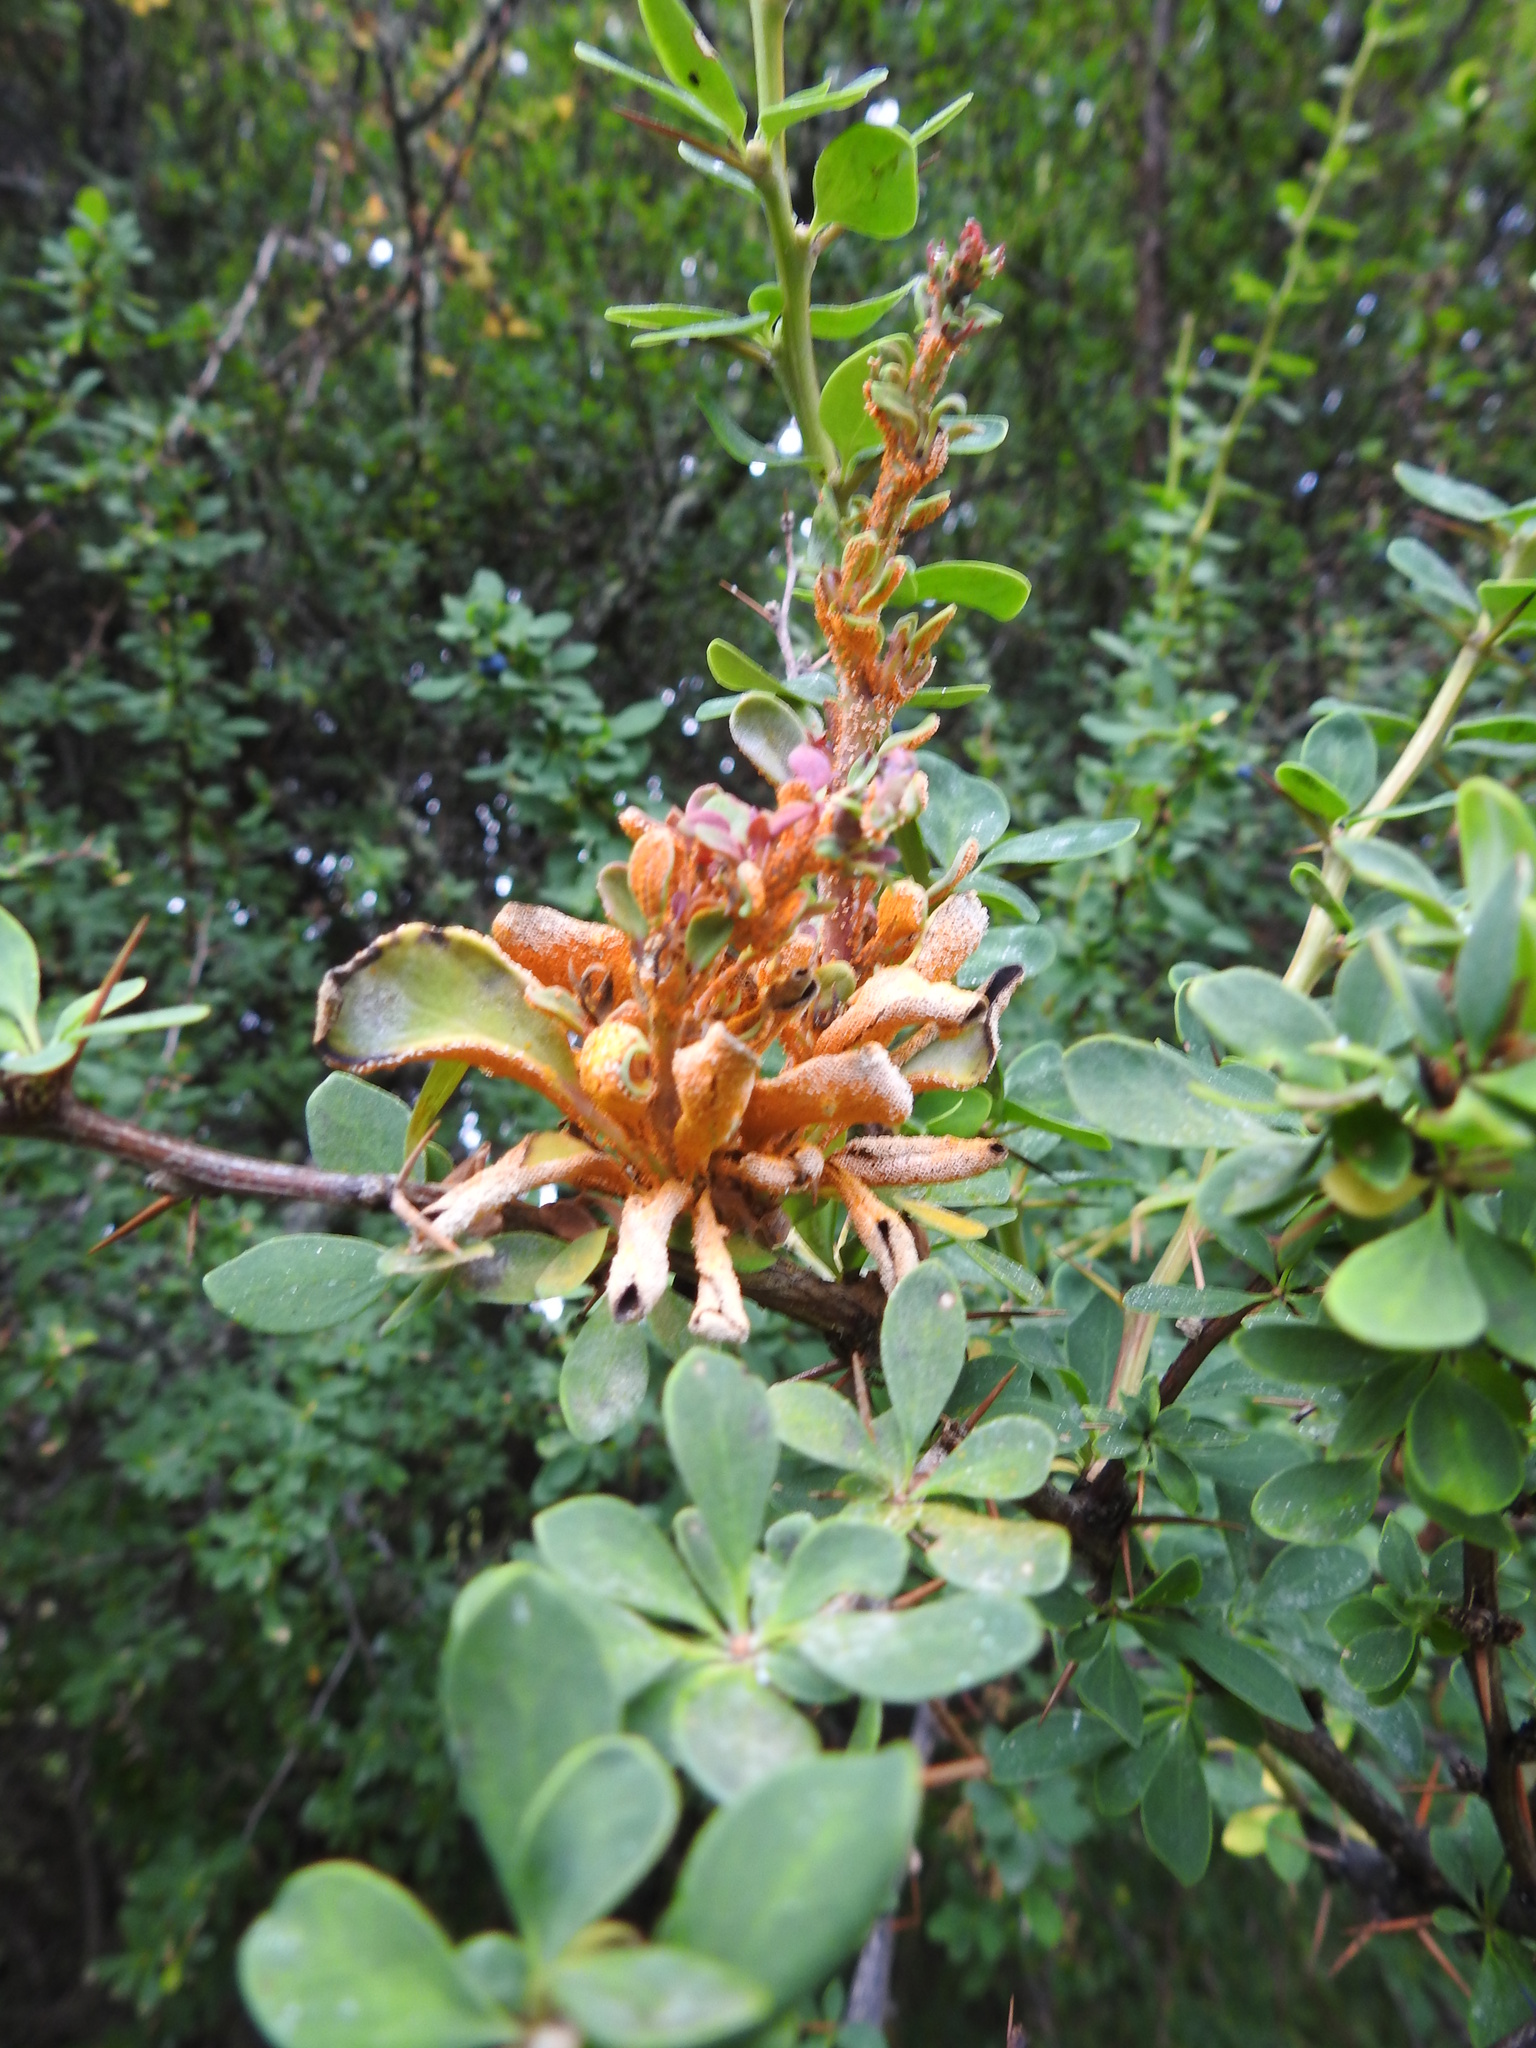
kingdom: Fungi
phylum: Basidiomycota
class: Pucciniomycetes
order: Pucciniales
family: Pucciniaceae
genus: Puccinia
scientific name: Puccinia magellanica
